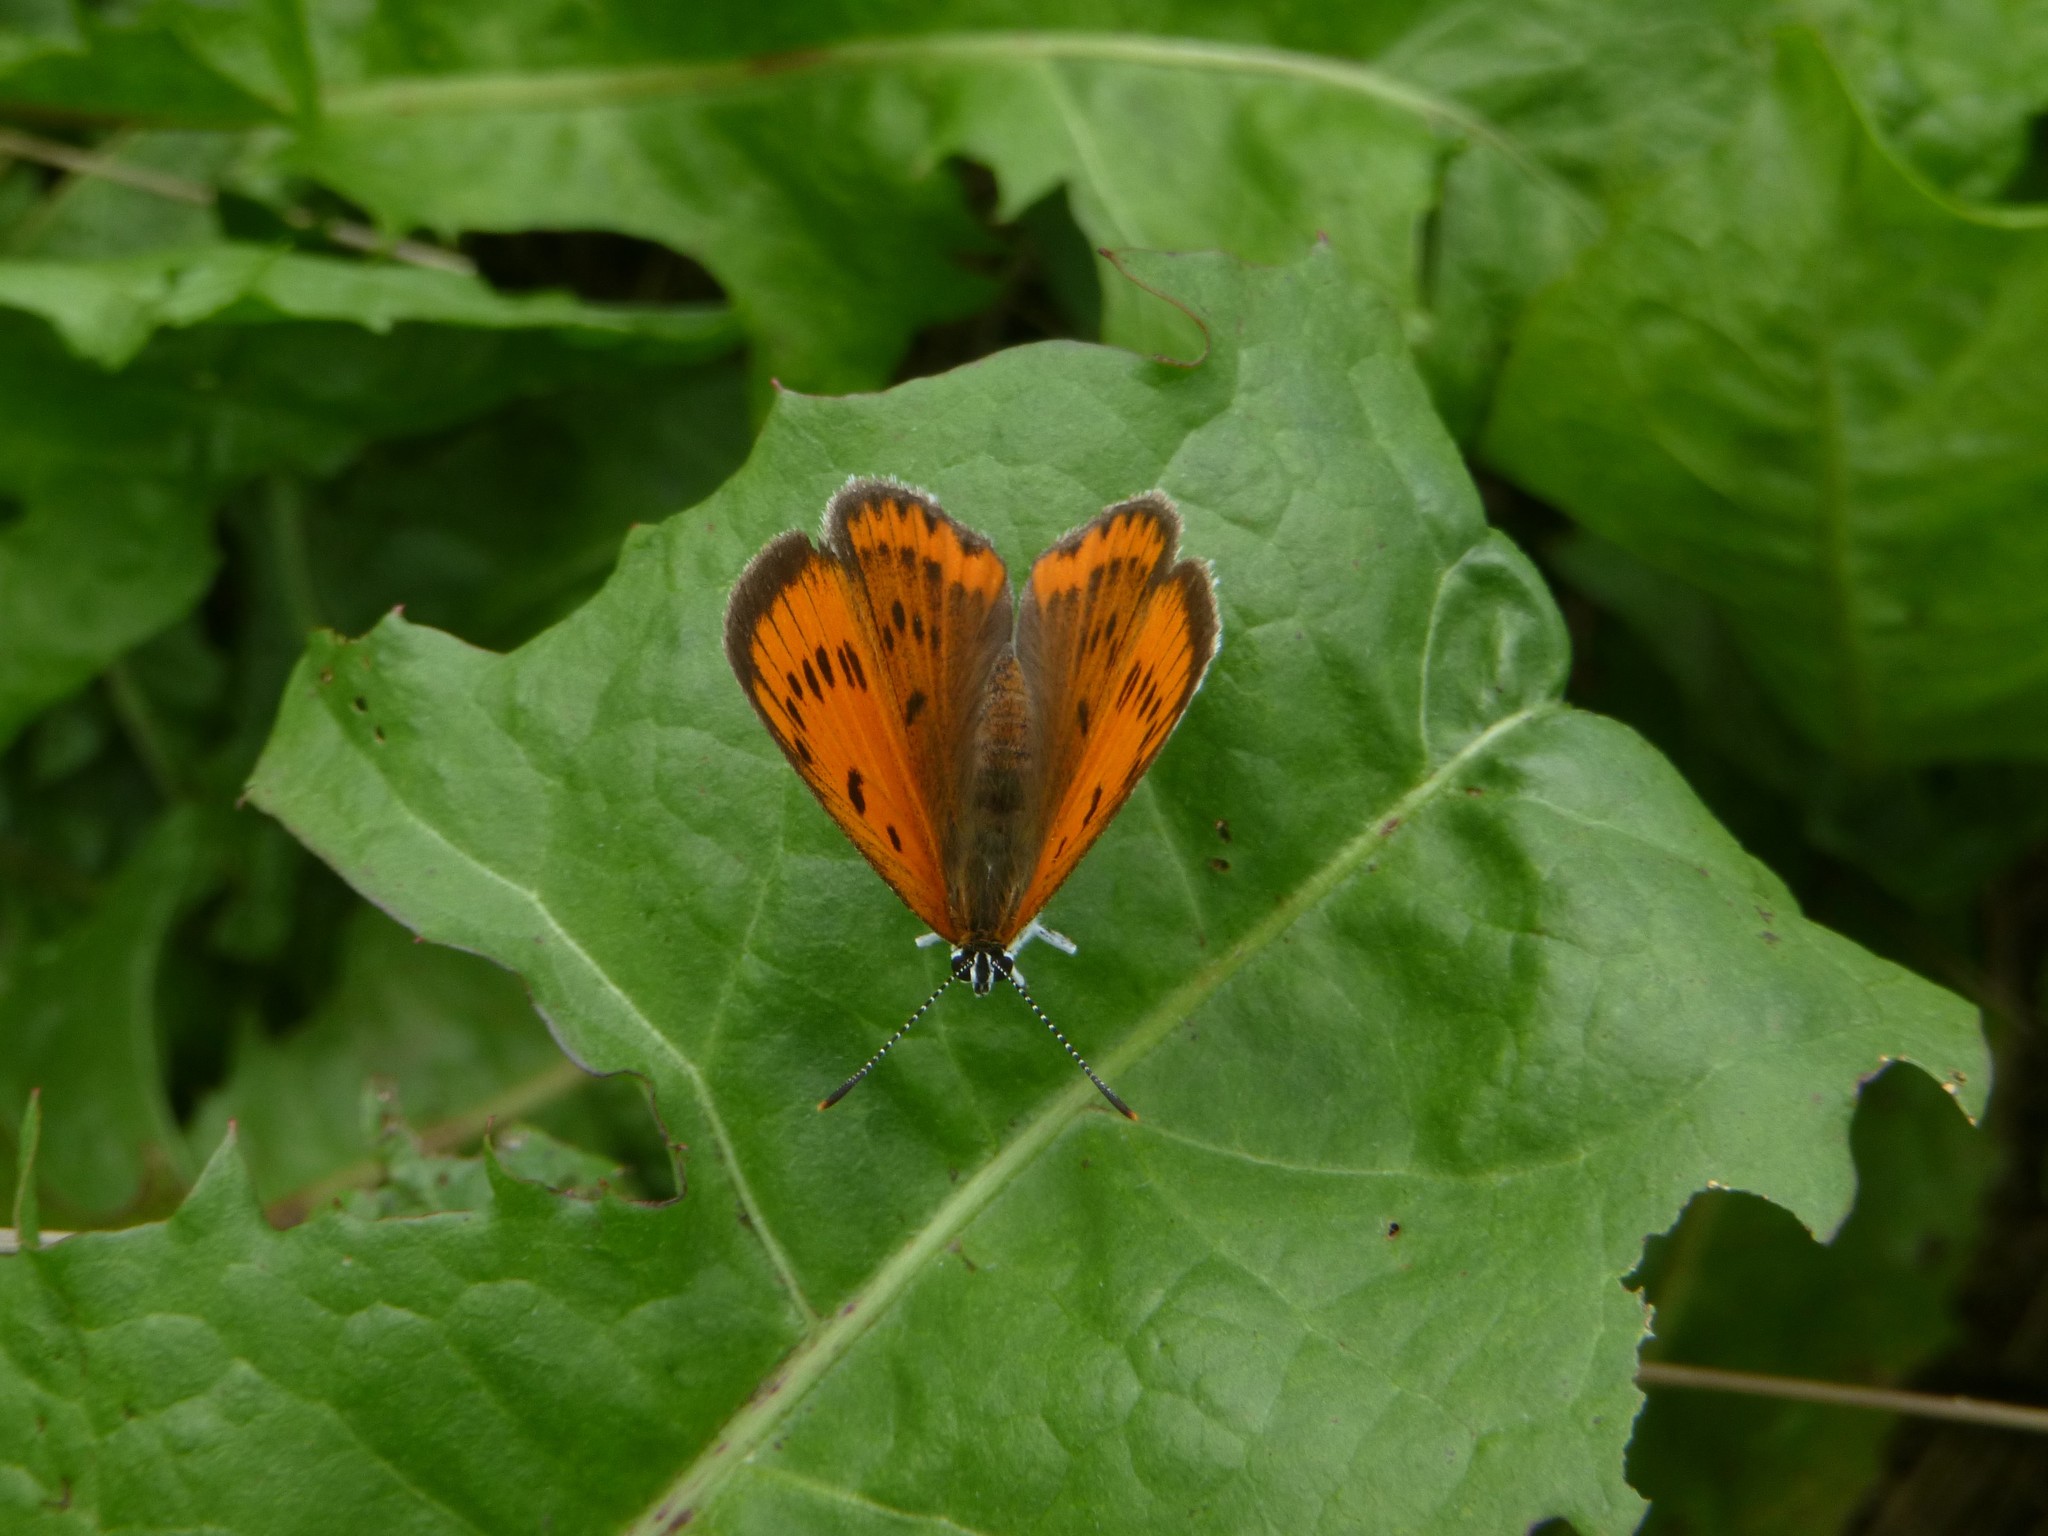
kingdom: Animalia
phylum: Arthropoda
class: Insecta
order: Lepidoptera
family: Lycaenidae
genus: Lycaena
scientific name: Lycaena dispar
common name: Large copper
